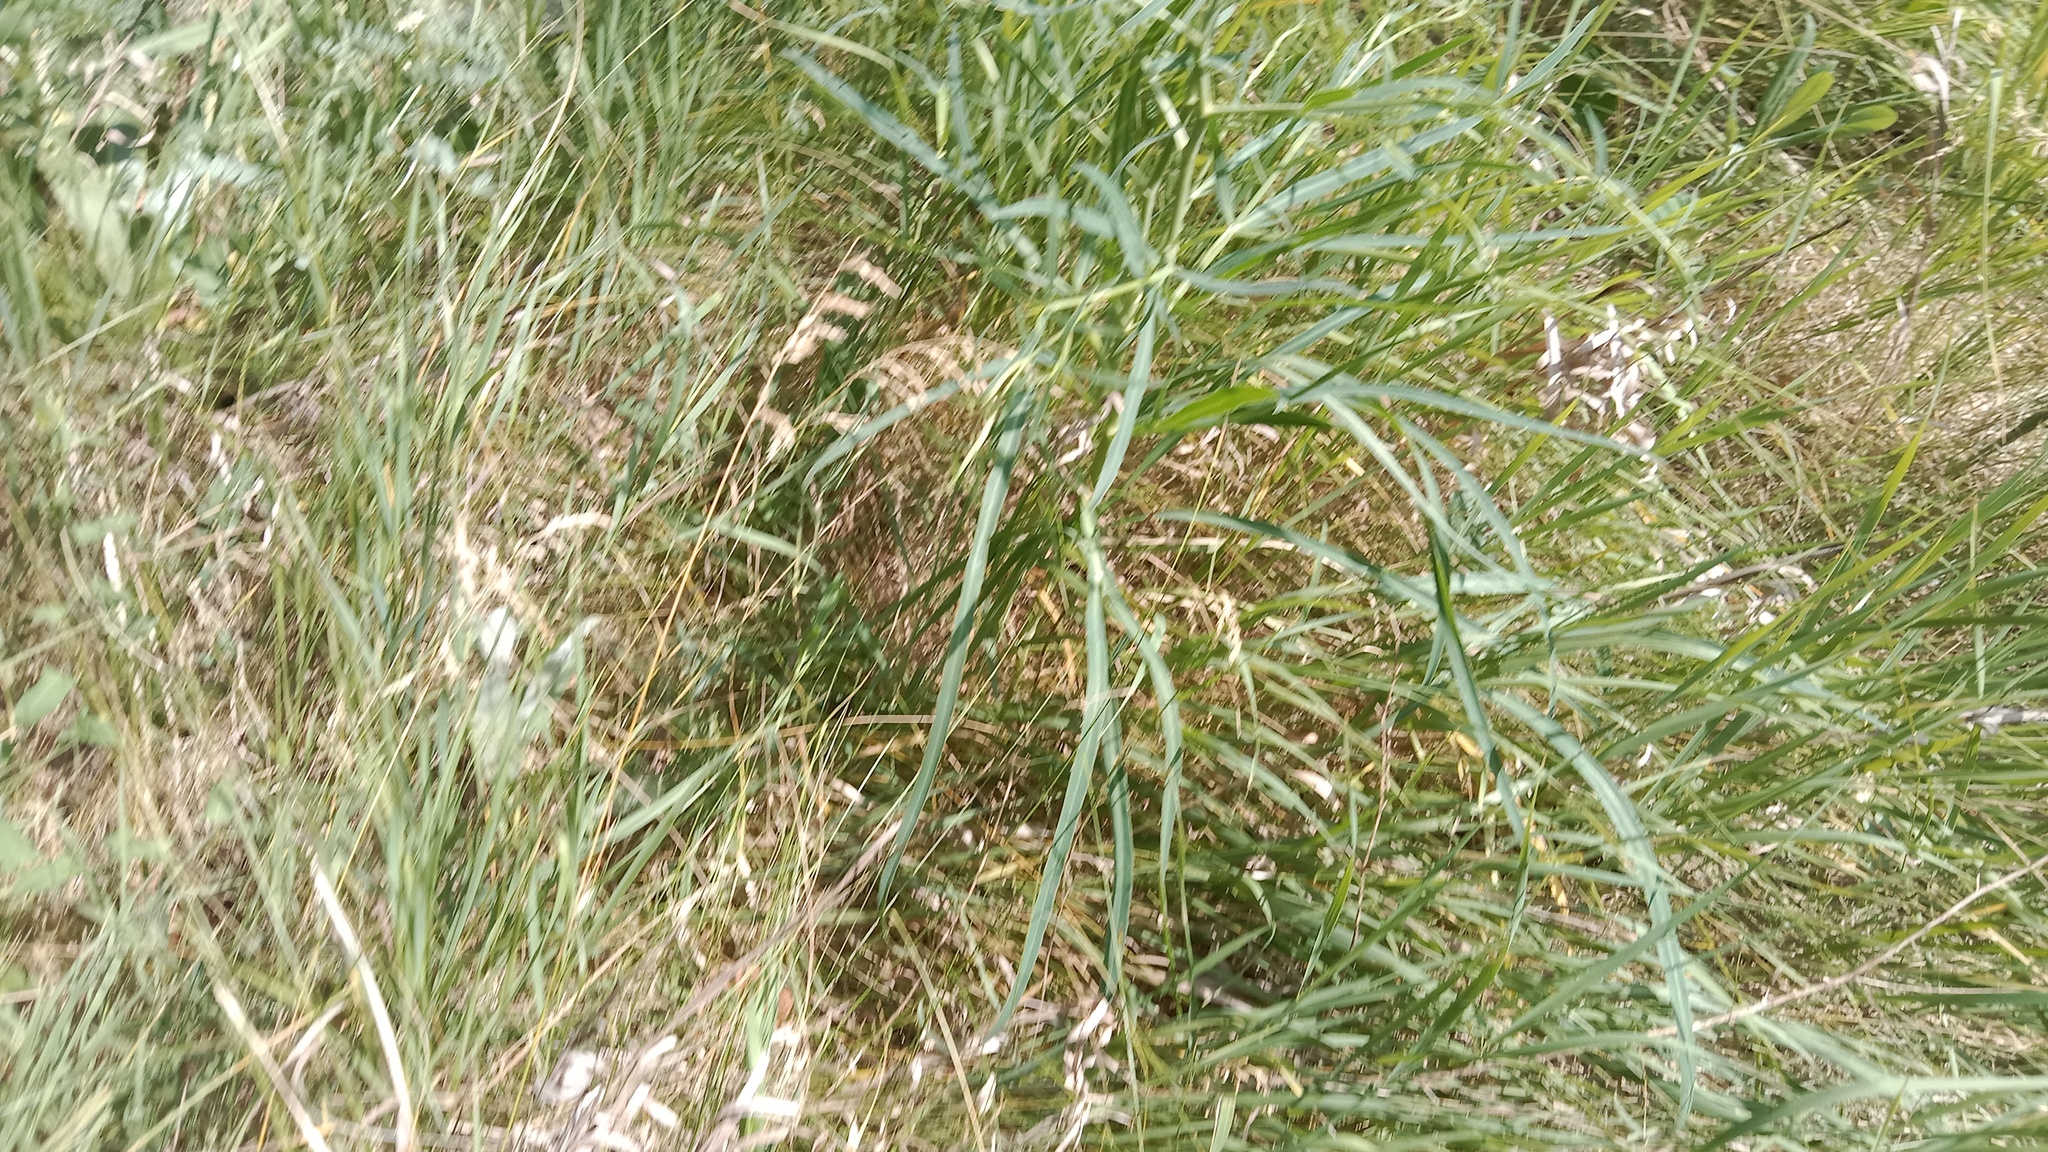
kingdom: Plantae
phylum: Tracheophyta
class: Magnoliopsida
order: Apiales
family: Apiaceae
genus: Falcaria
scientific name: Falcaria vulgaris
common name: Longleaf
